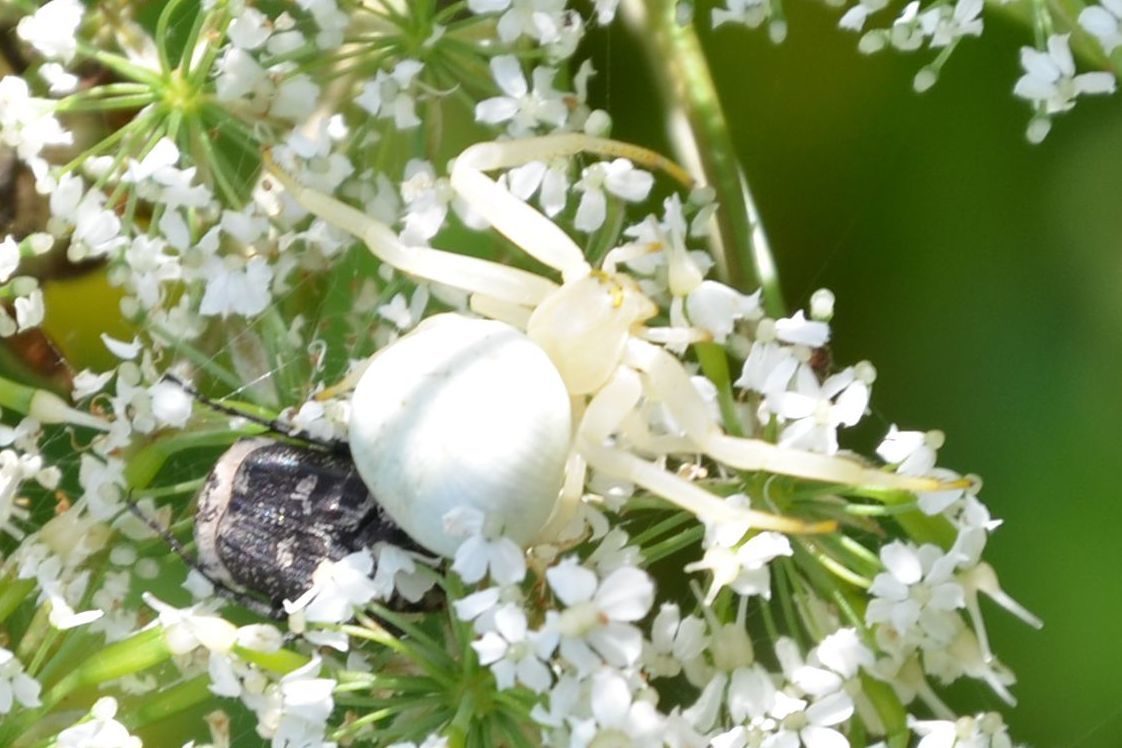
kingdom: Animalia
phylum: Arthropoda
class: Arachnida
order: Araneae
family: Thomisidae
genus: Misumena
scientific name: Misumena vatia
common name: Goldenrod crab spider
